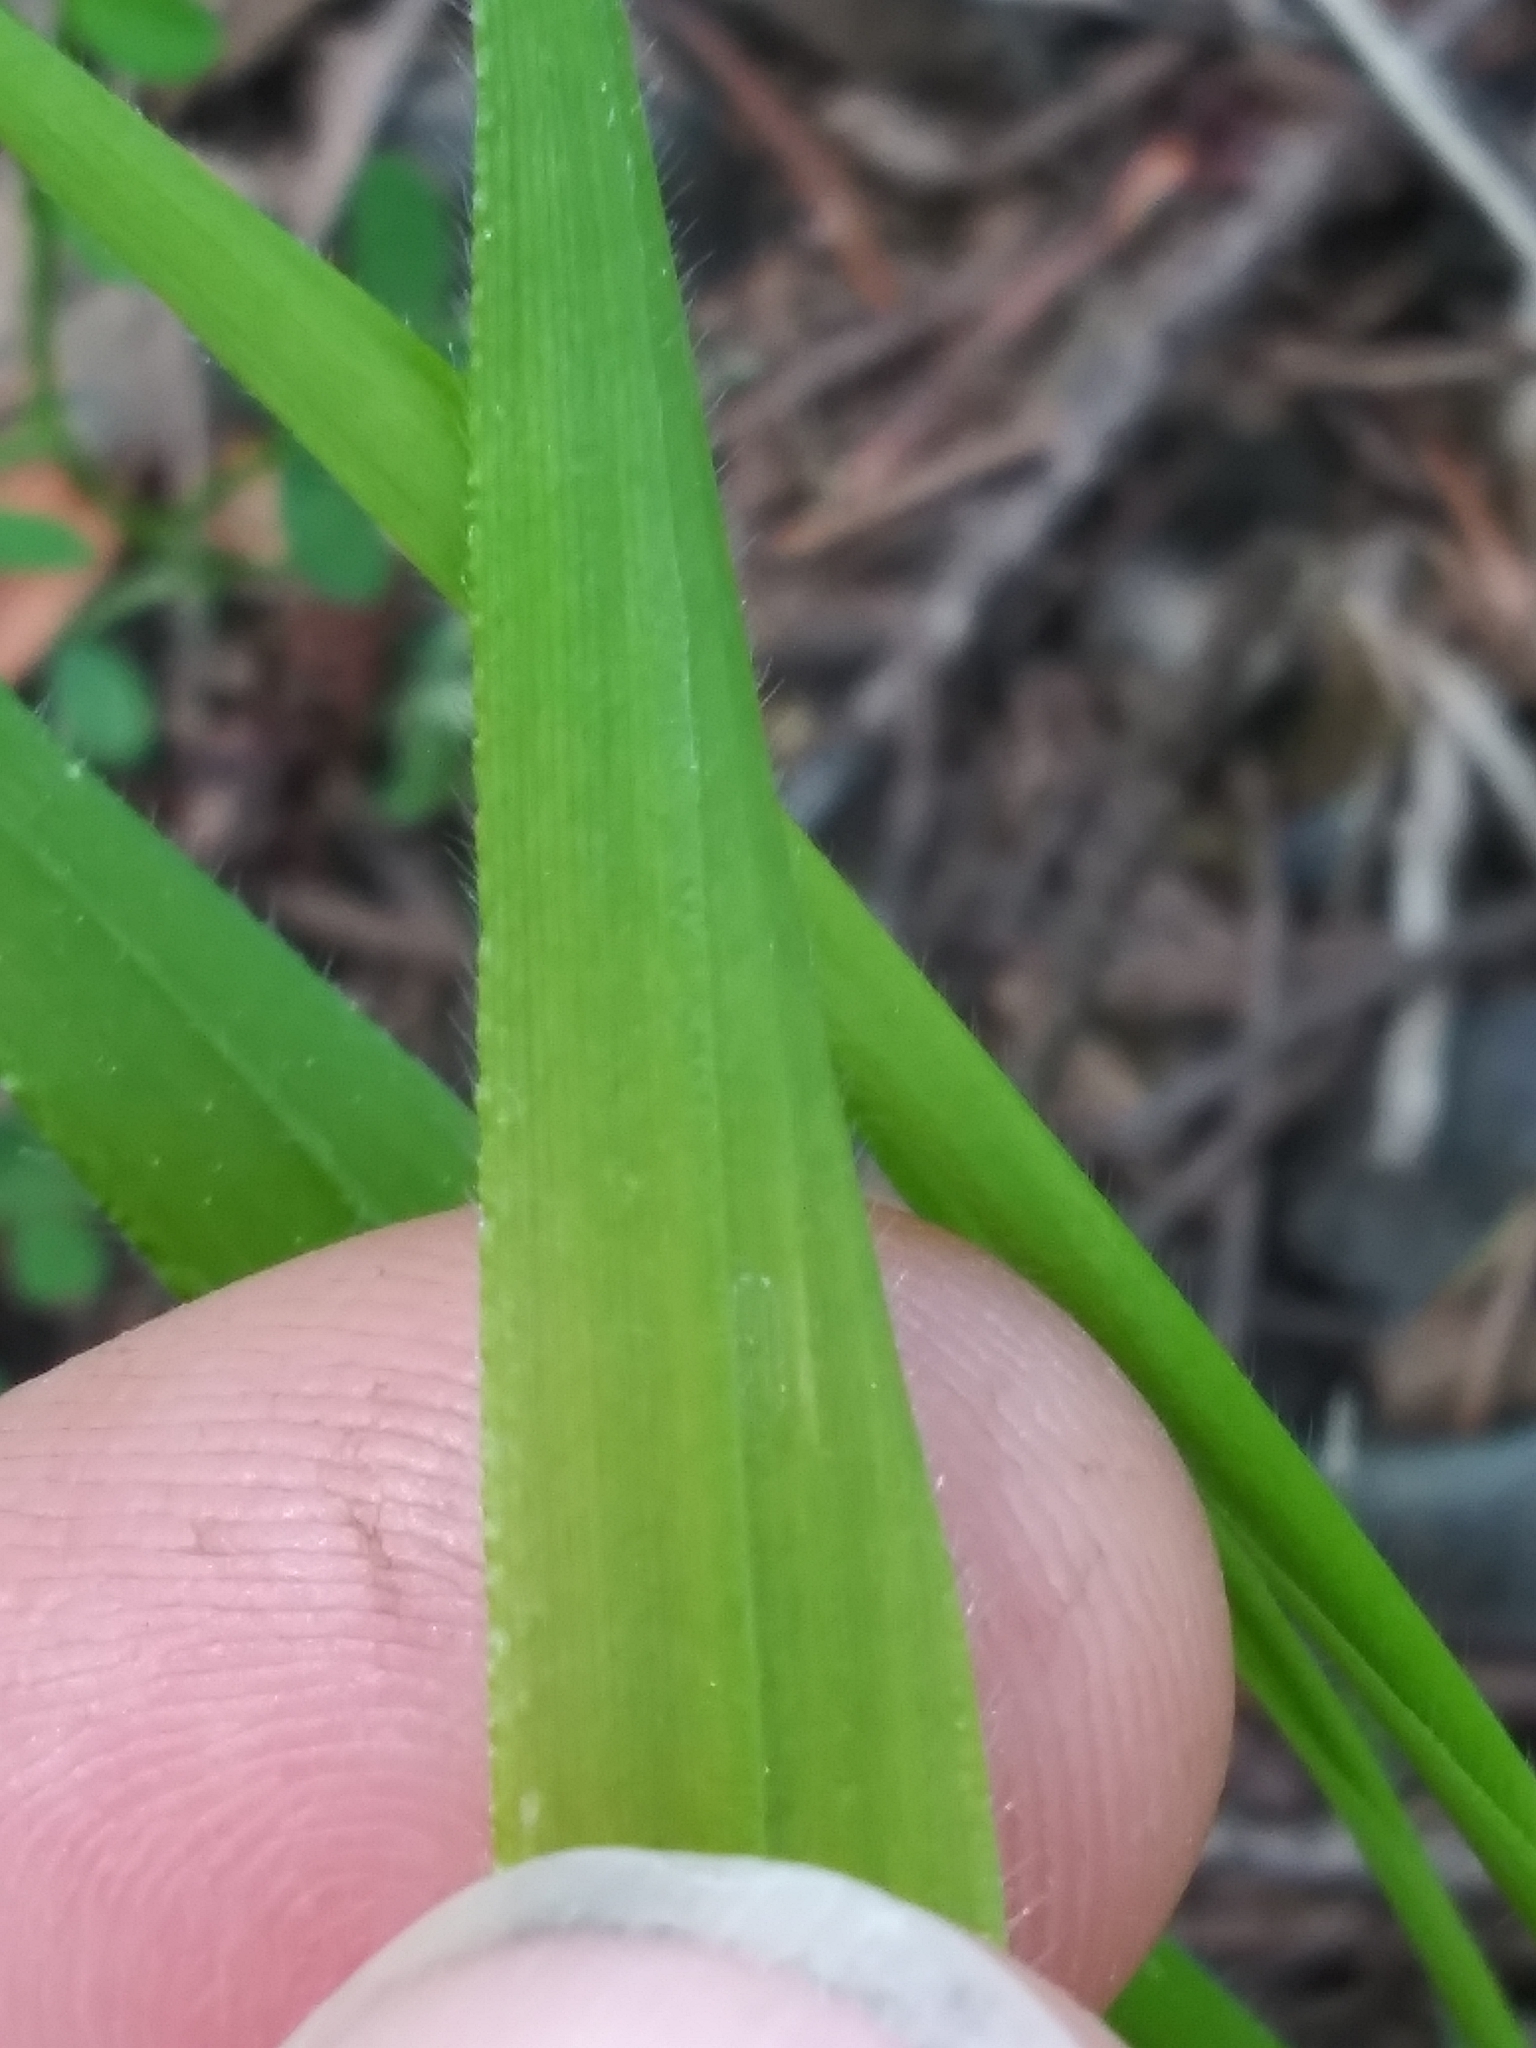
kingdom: Plantae
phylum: Tracheophyta
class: Liliopsida
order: Poales
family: Poaceae
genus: Brachypodium
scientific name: Brachypodium sylvaticum
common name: False-brome
